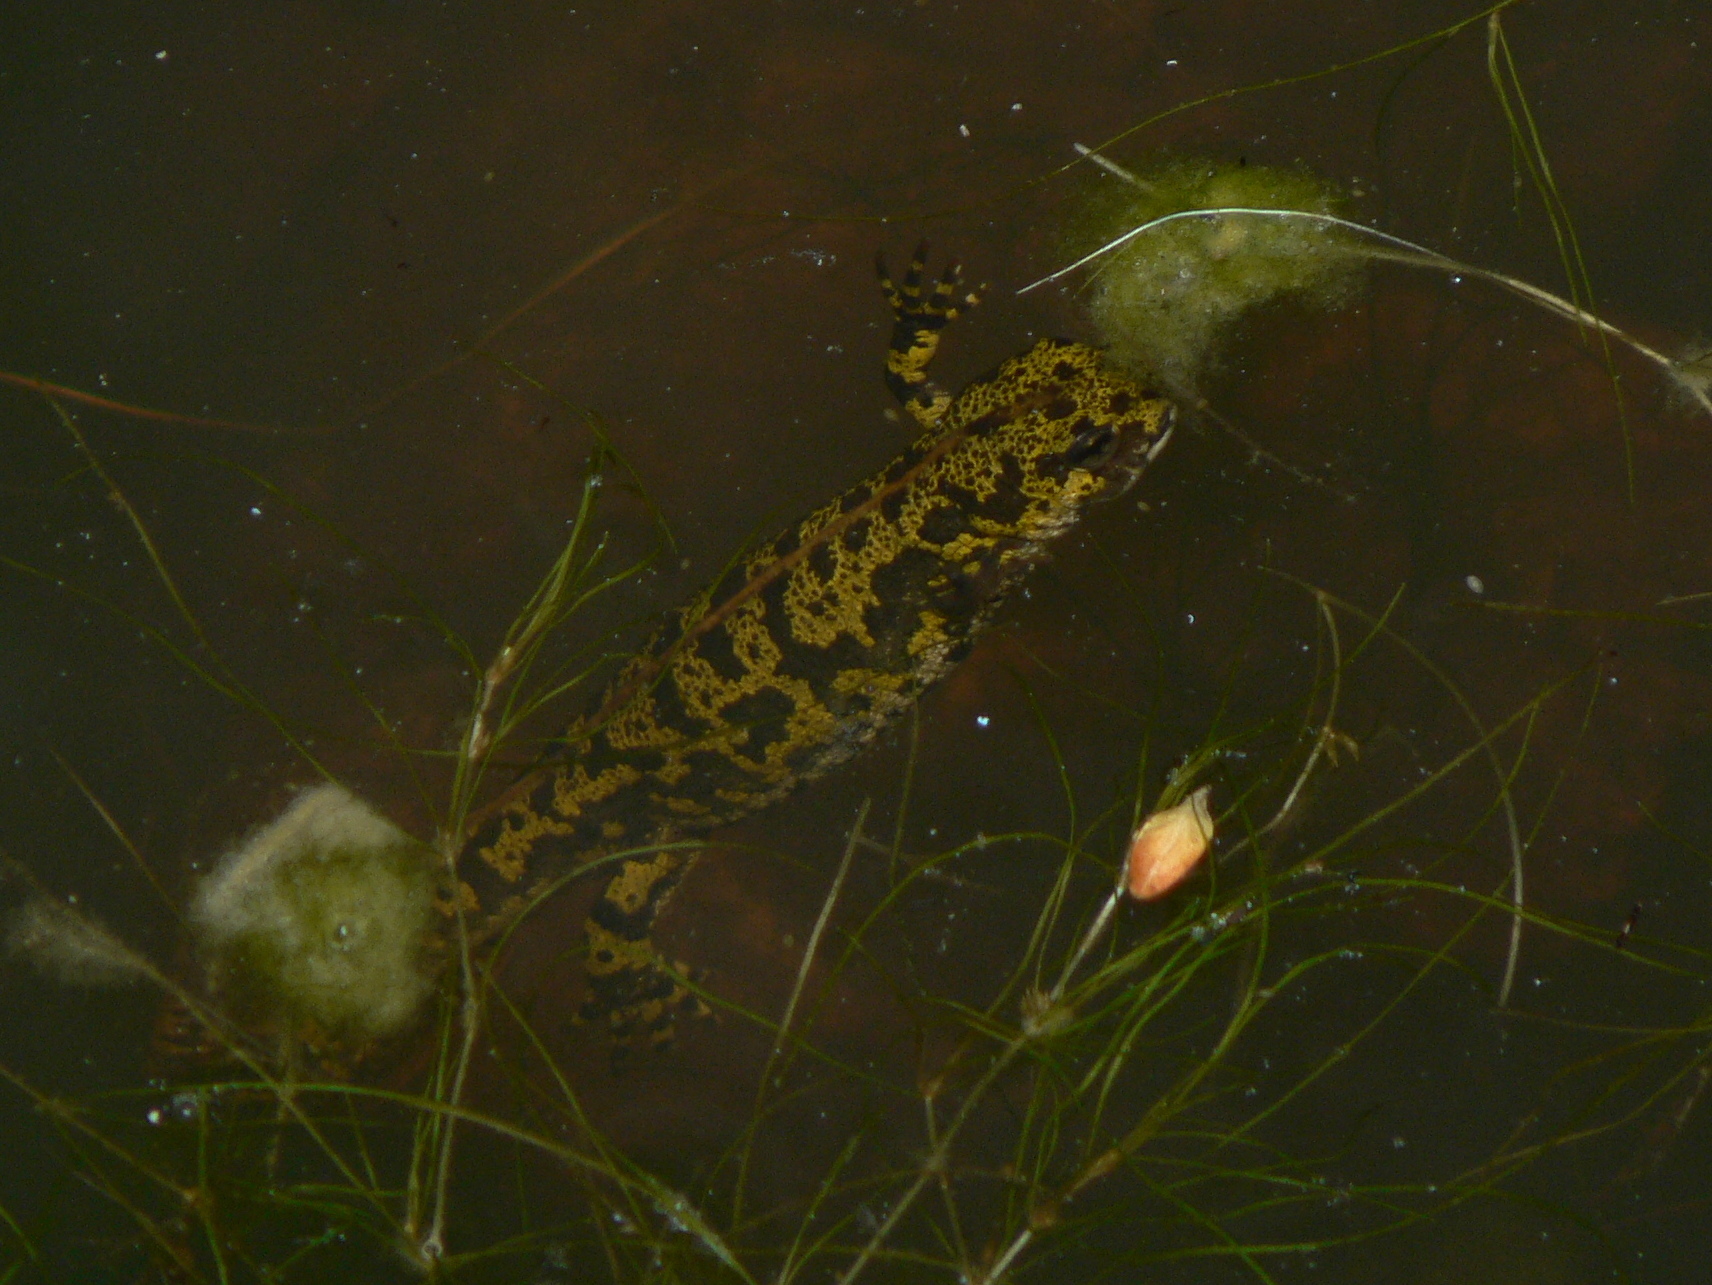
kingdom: Animalia
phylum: Chordata
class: Amphibia
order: Caudata
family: Salamandridae
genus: Triturus
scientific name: Triturus marmoratus
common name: Marbled newt
